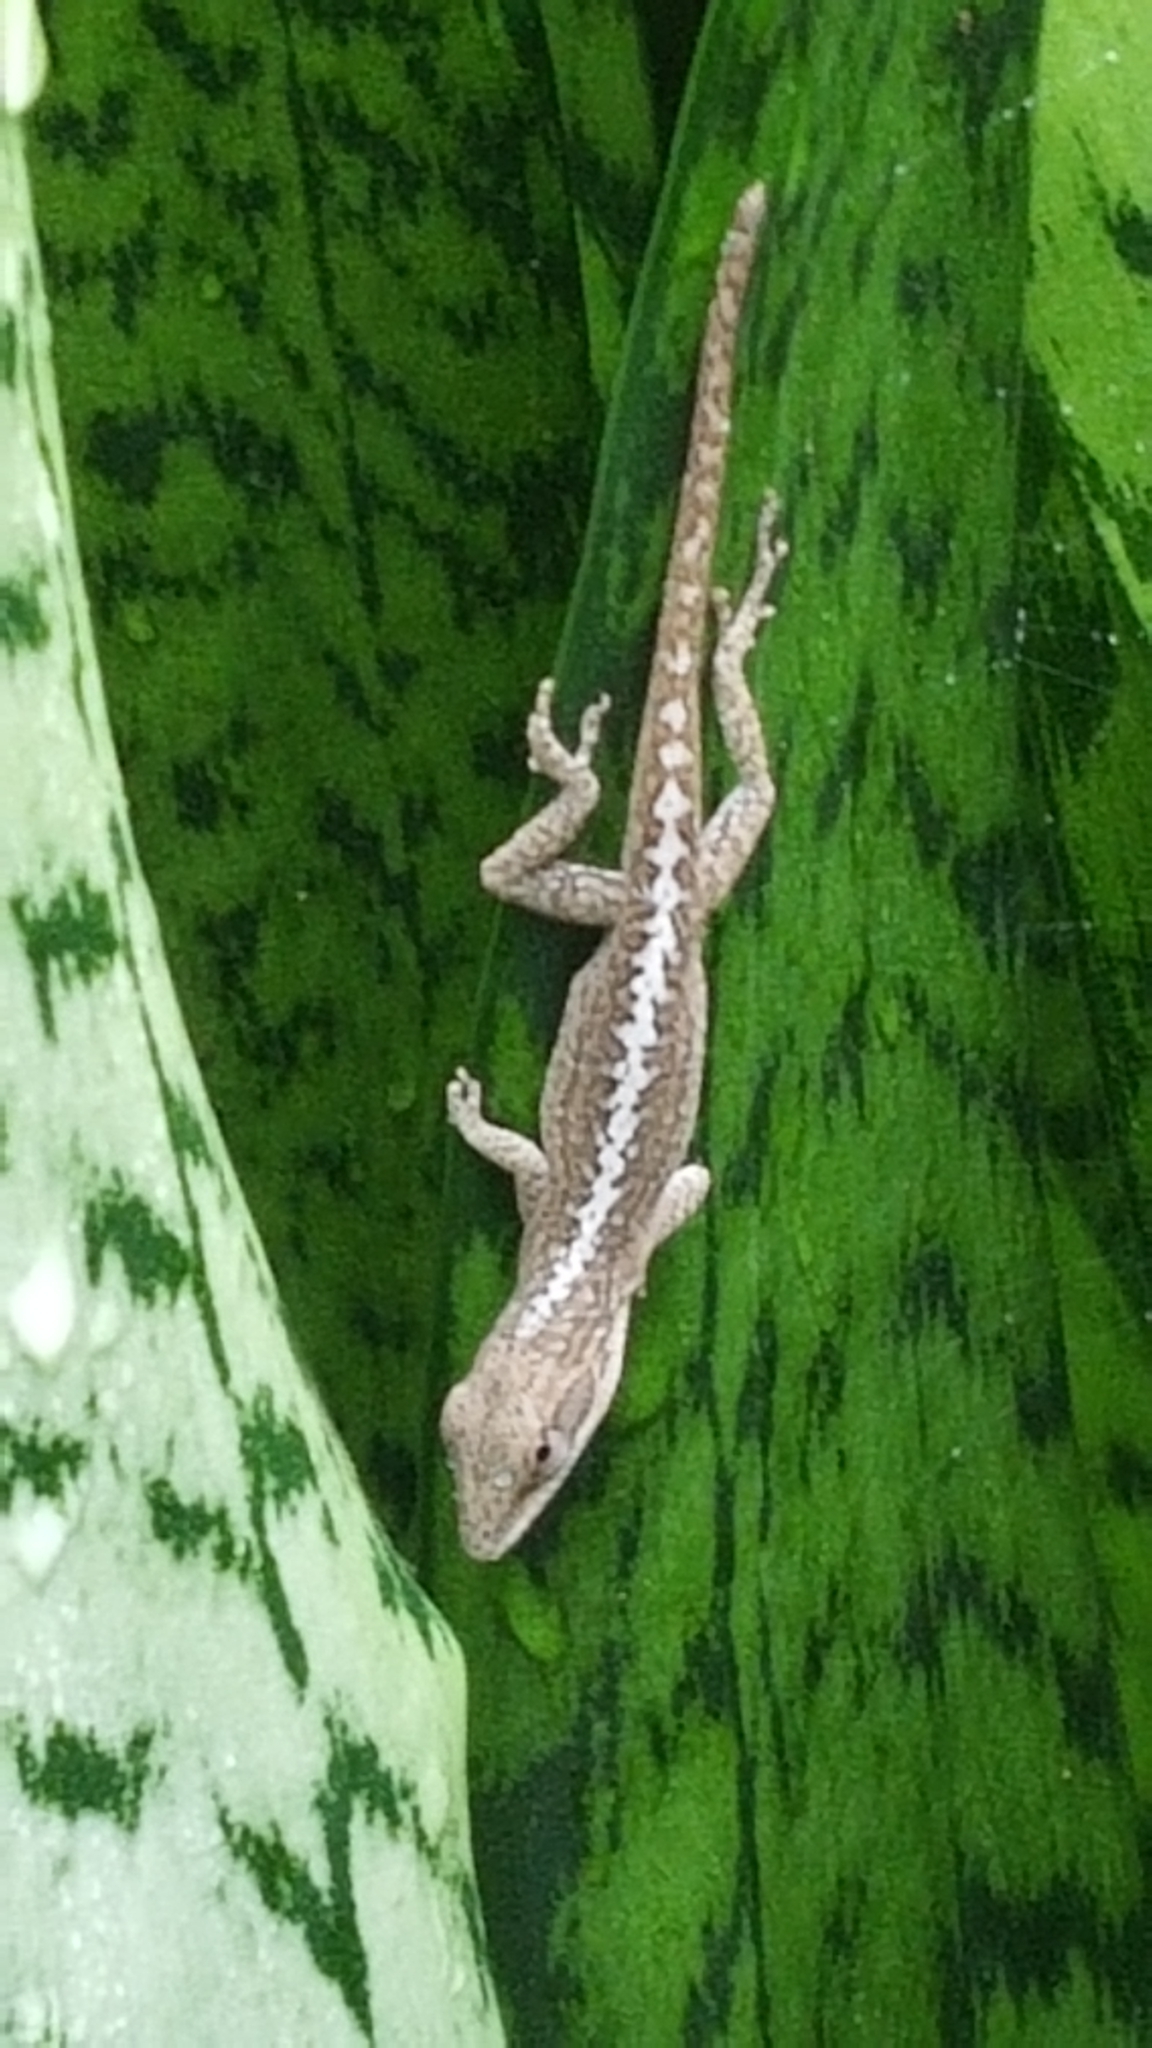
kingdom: Animalia
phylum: Chordata
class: Squamata
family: Dactyloidae
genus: Anolis
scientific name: Anolis carolinensis
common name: Green anole
